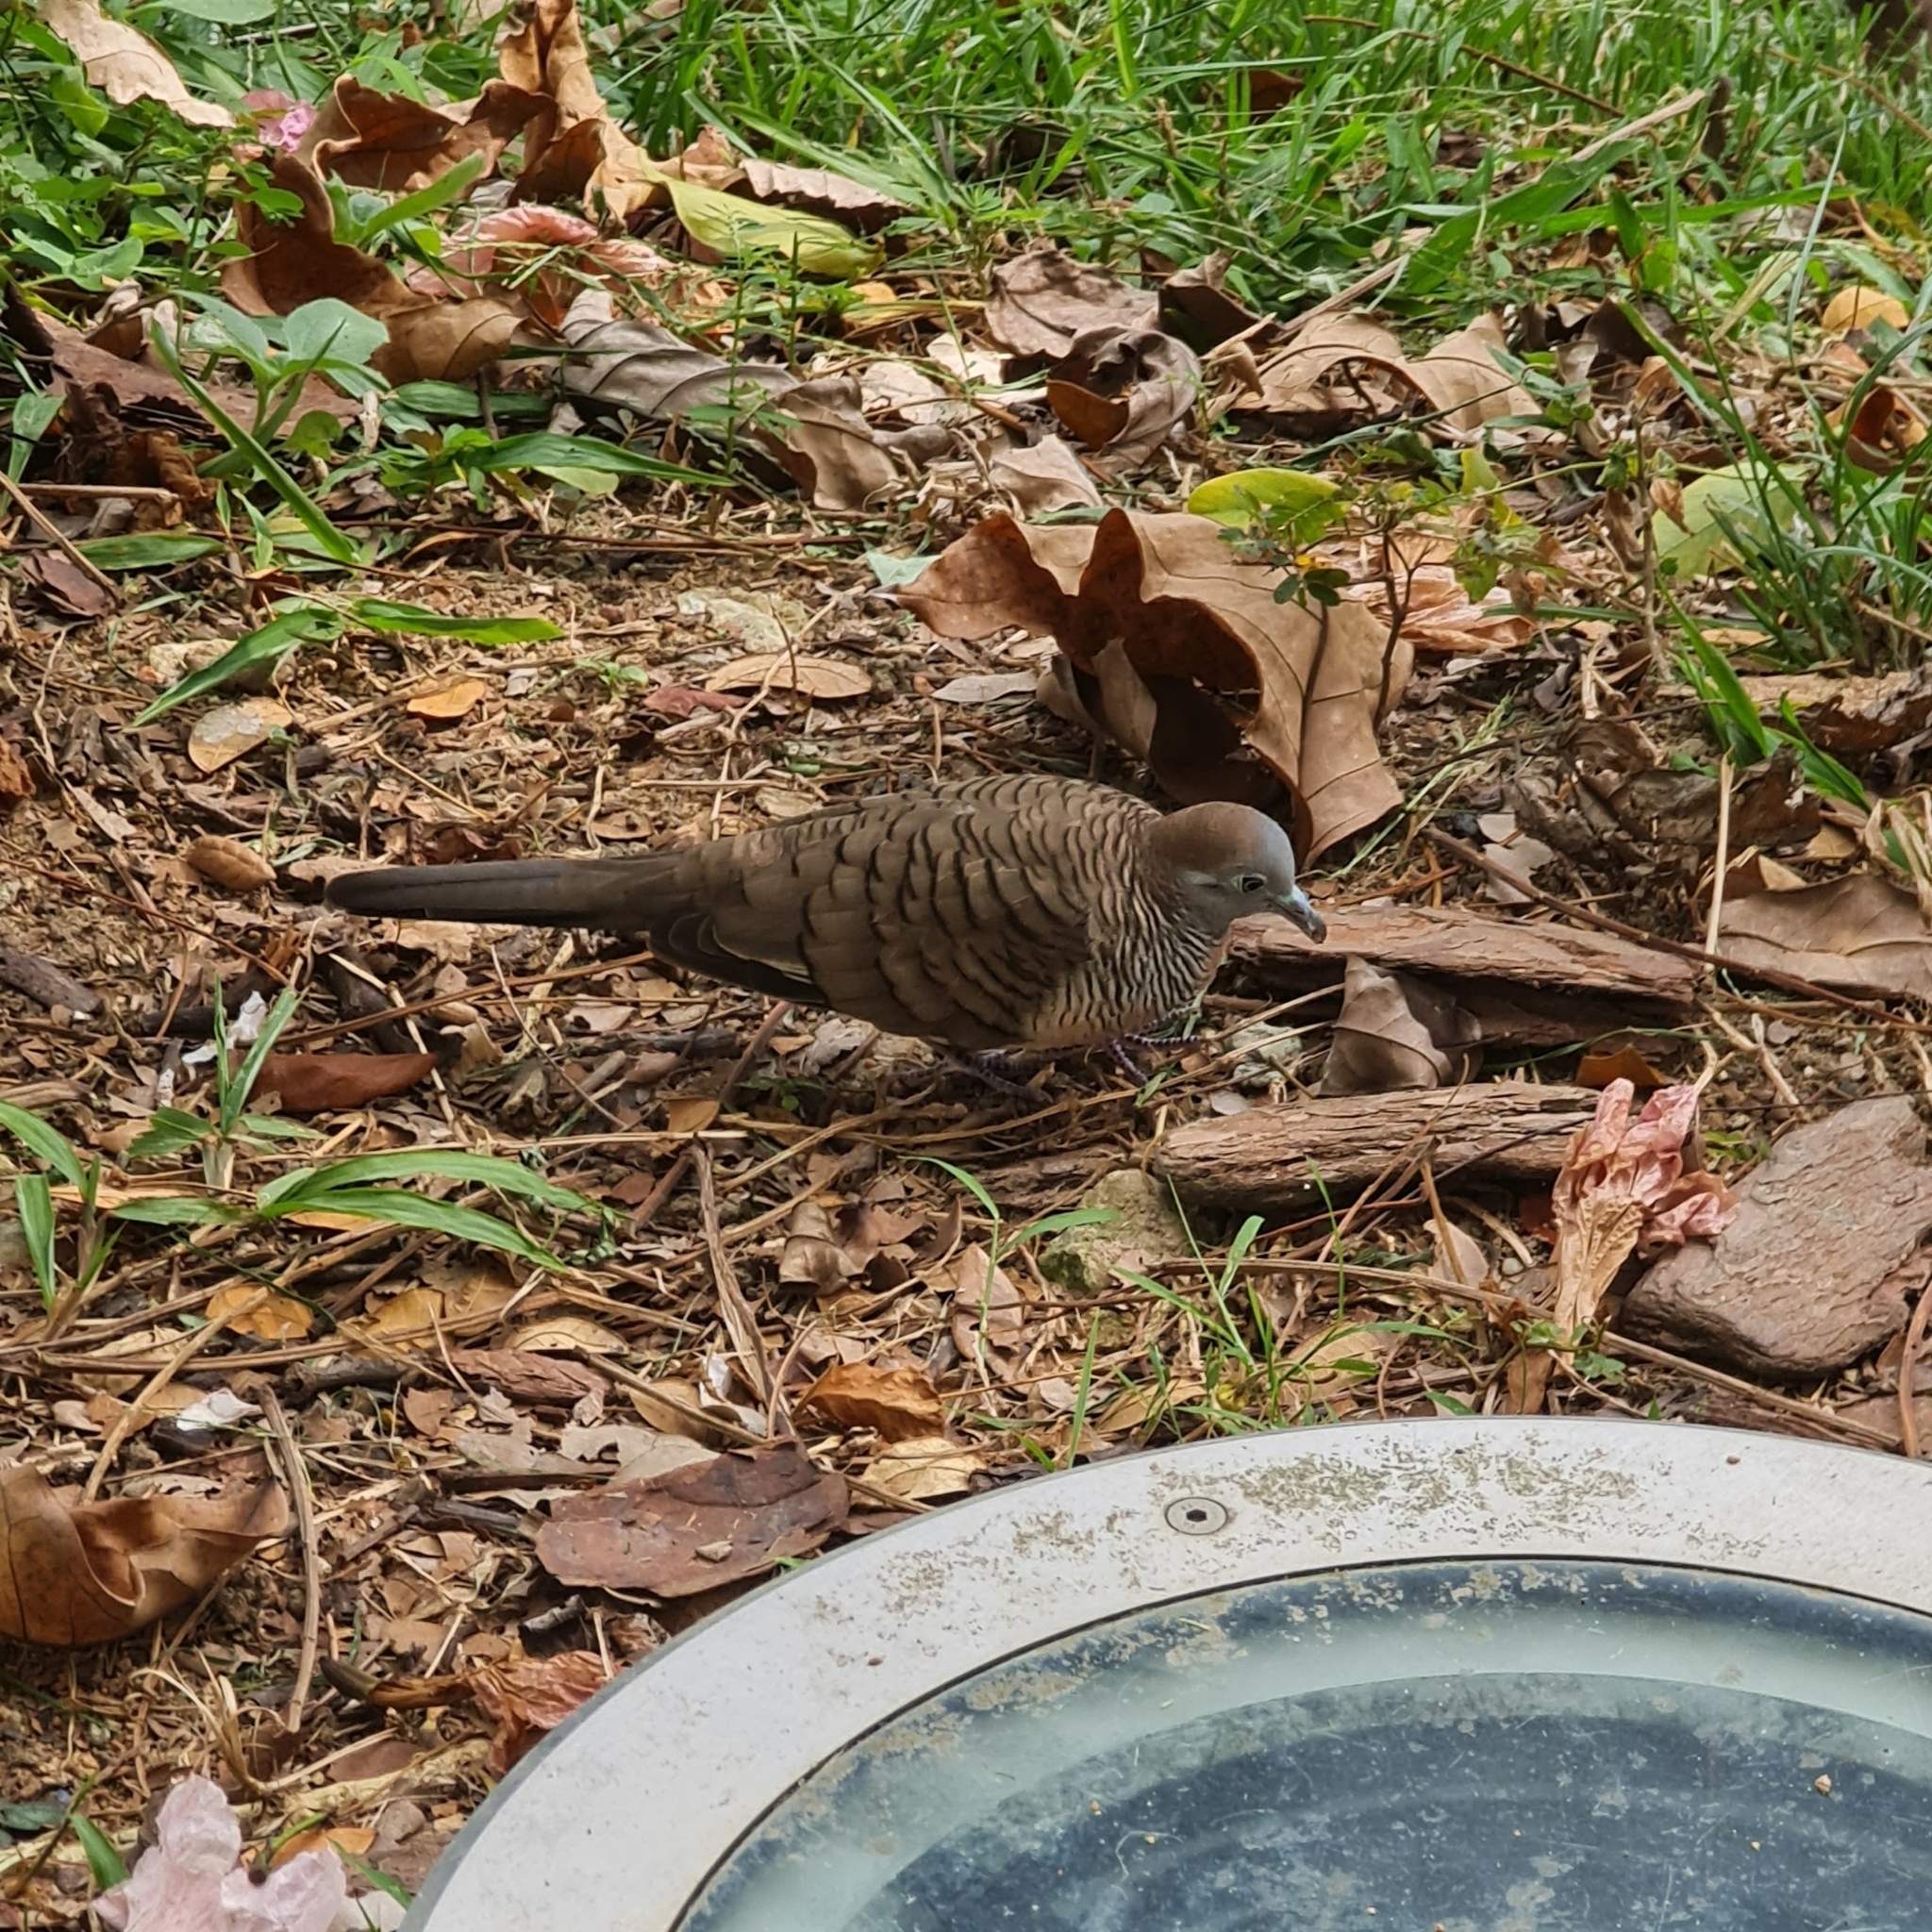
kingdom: Animalia
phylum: Chordata
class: Aves
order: Columbiformes
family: Columbidae
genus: Geopelia
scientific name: Geopelia striata
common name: Zebra dove
